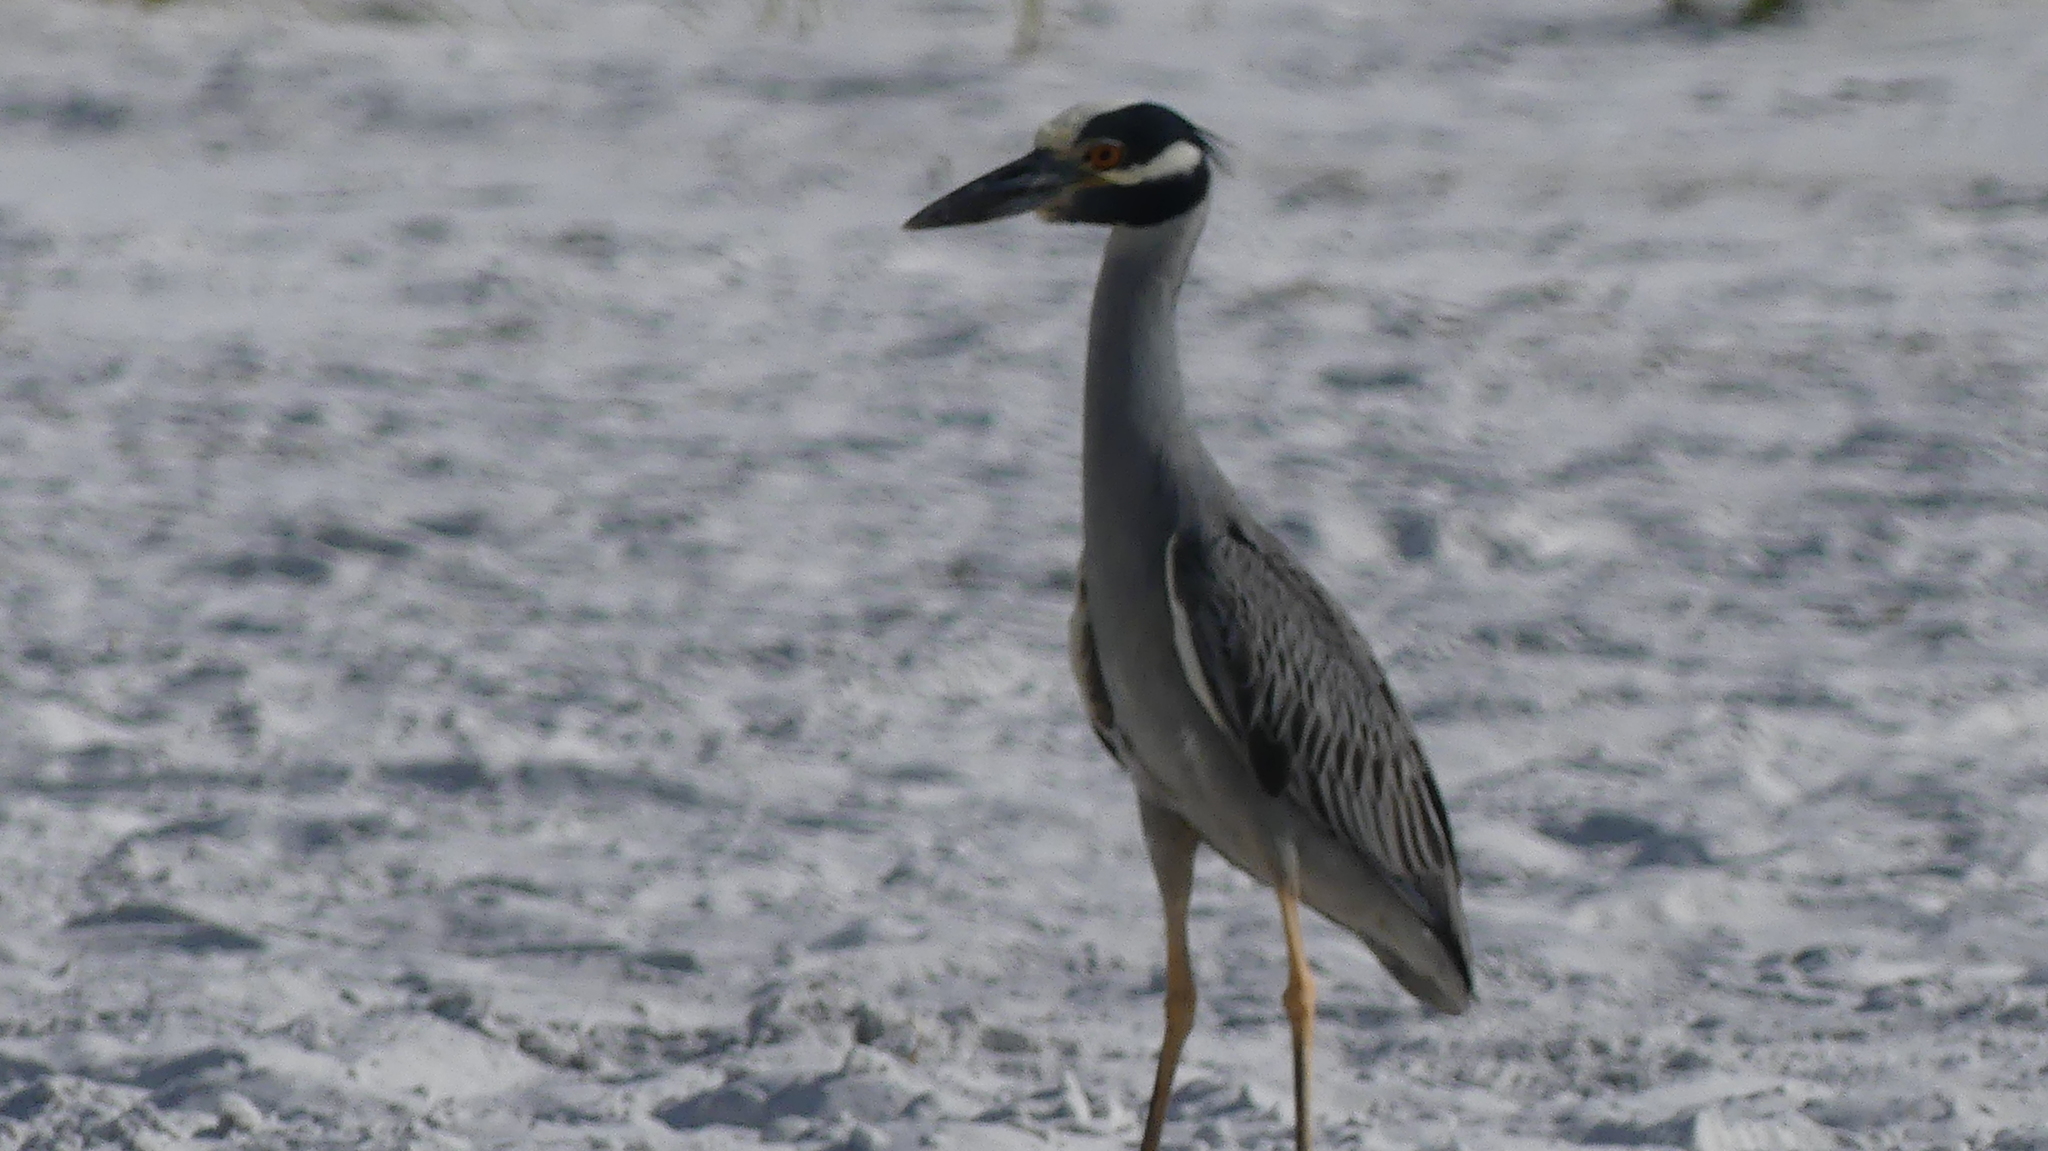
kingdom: Animalia
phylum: Chordata
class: Aves
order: Pelecaniformes
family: Ardeidae
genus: Nyctanassa
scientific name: Nyctanassa violacea
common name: Yellow-crowned night heron
